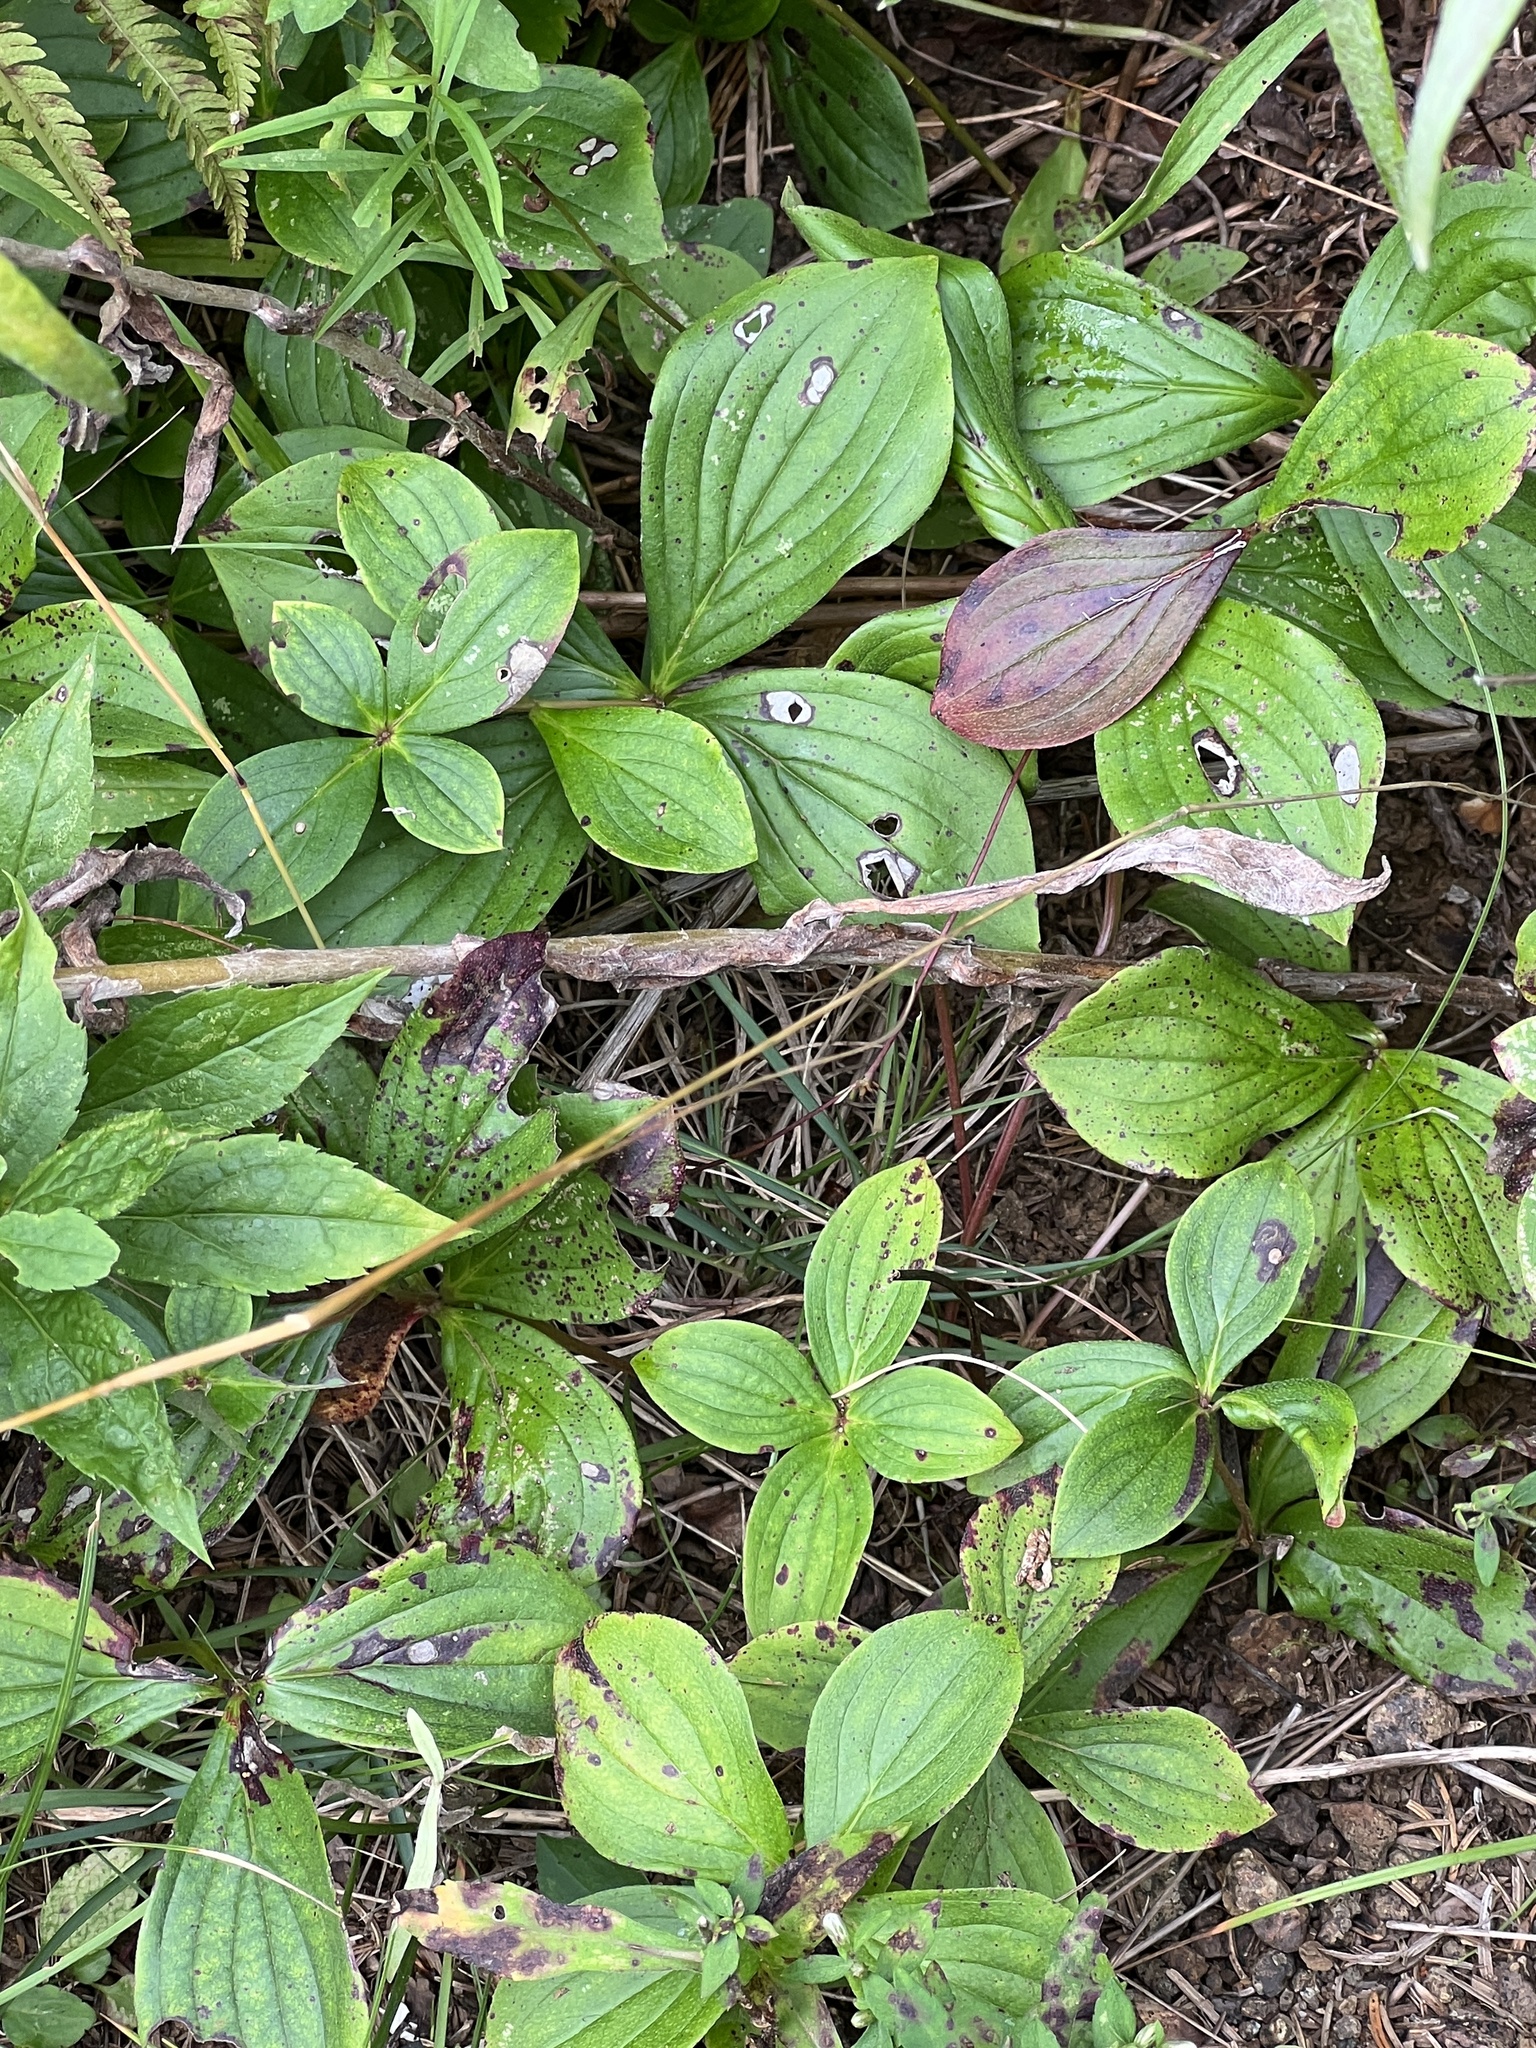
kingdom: Plantae
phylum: Tracheophyta
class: Magnoliopsida
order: Cornales
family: Cornaceae
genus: Cornus
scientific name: Cornus canadensis
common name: Creeping dogwood
